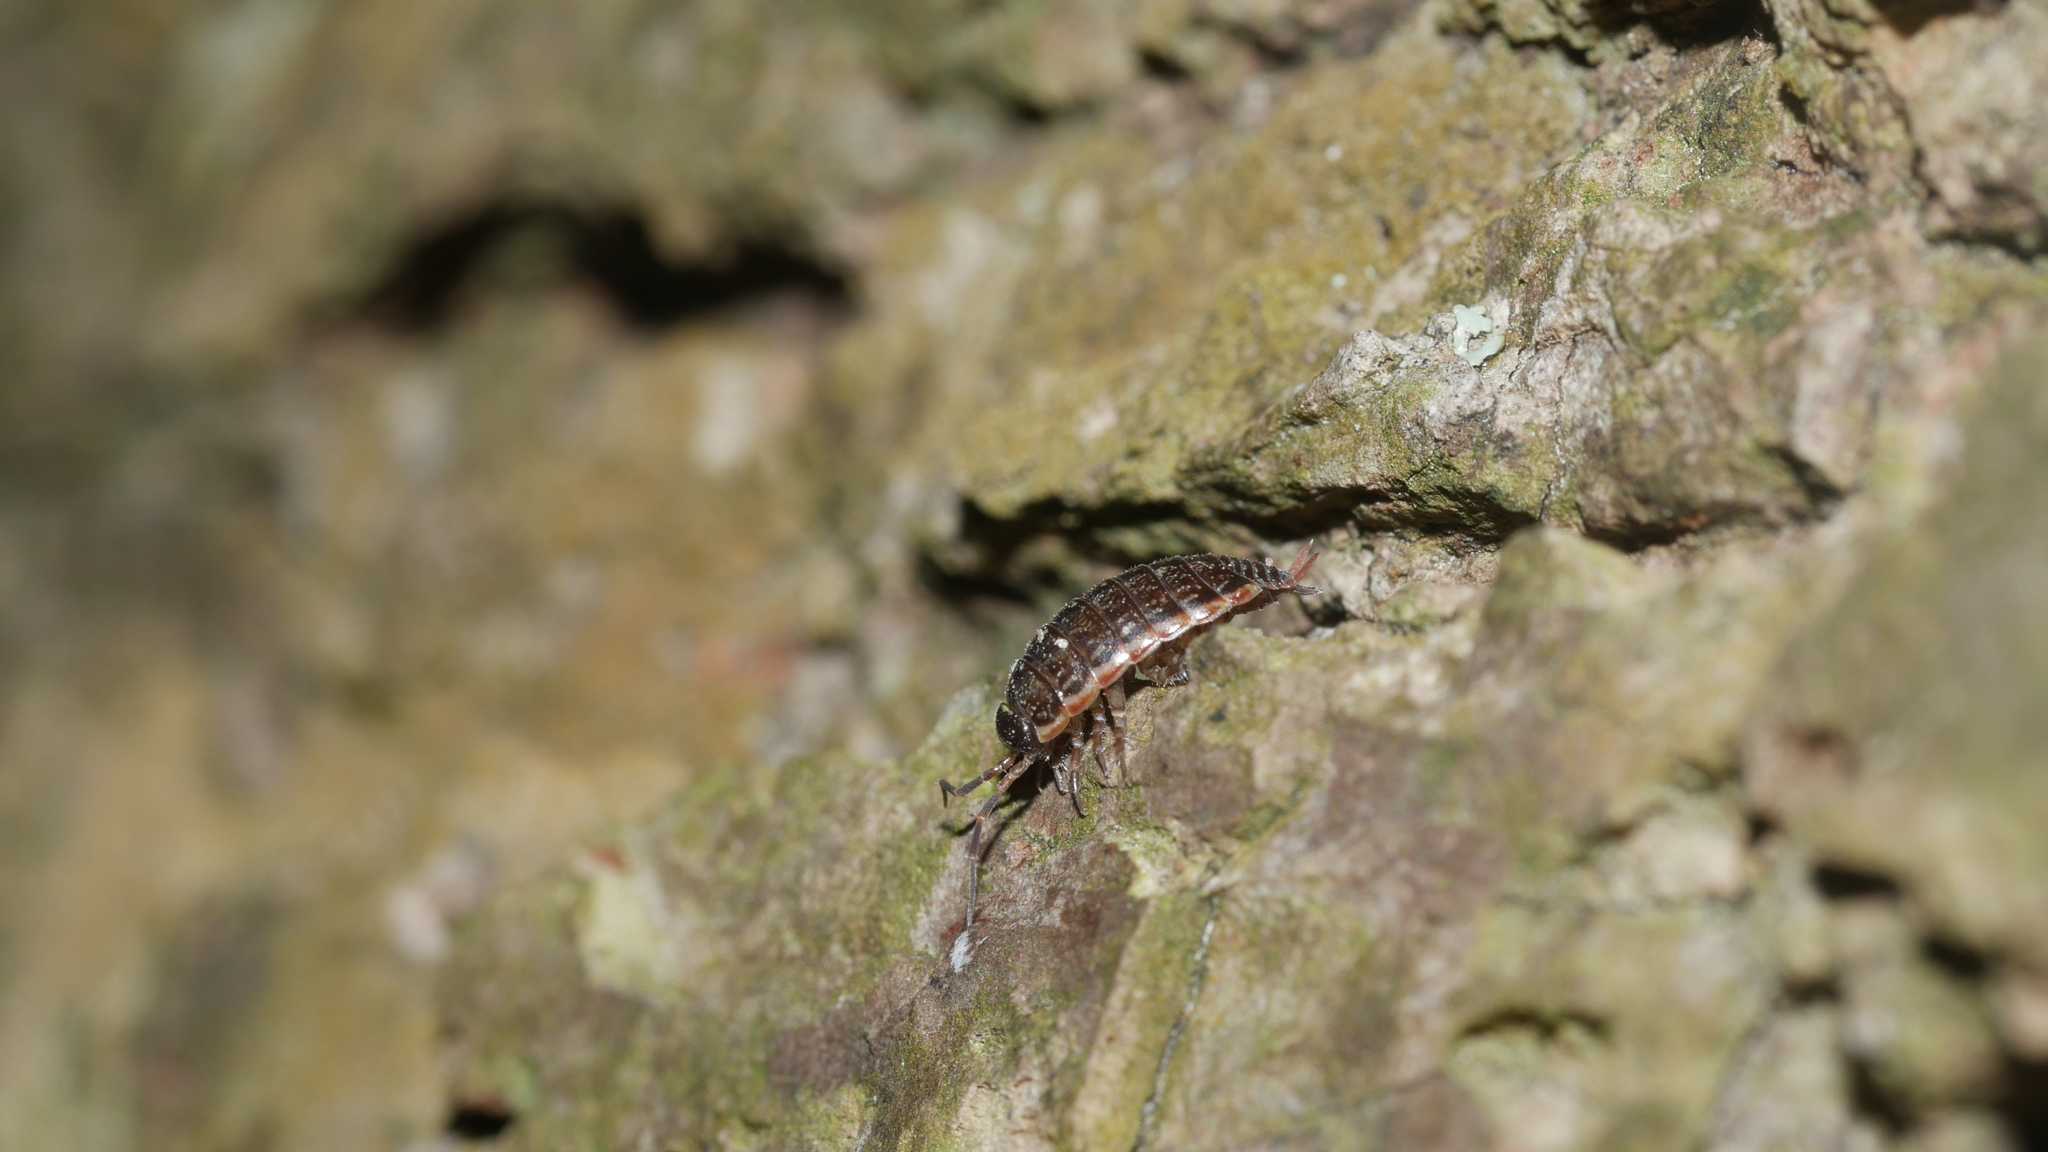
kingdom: Animalia
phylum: Arthropoda
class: Malacostraca
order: Isopoda
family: Philosciidae
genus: Philoscia
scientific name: Philoscia muscorum
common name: Common striped woodlouse
